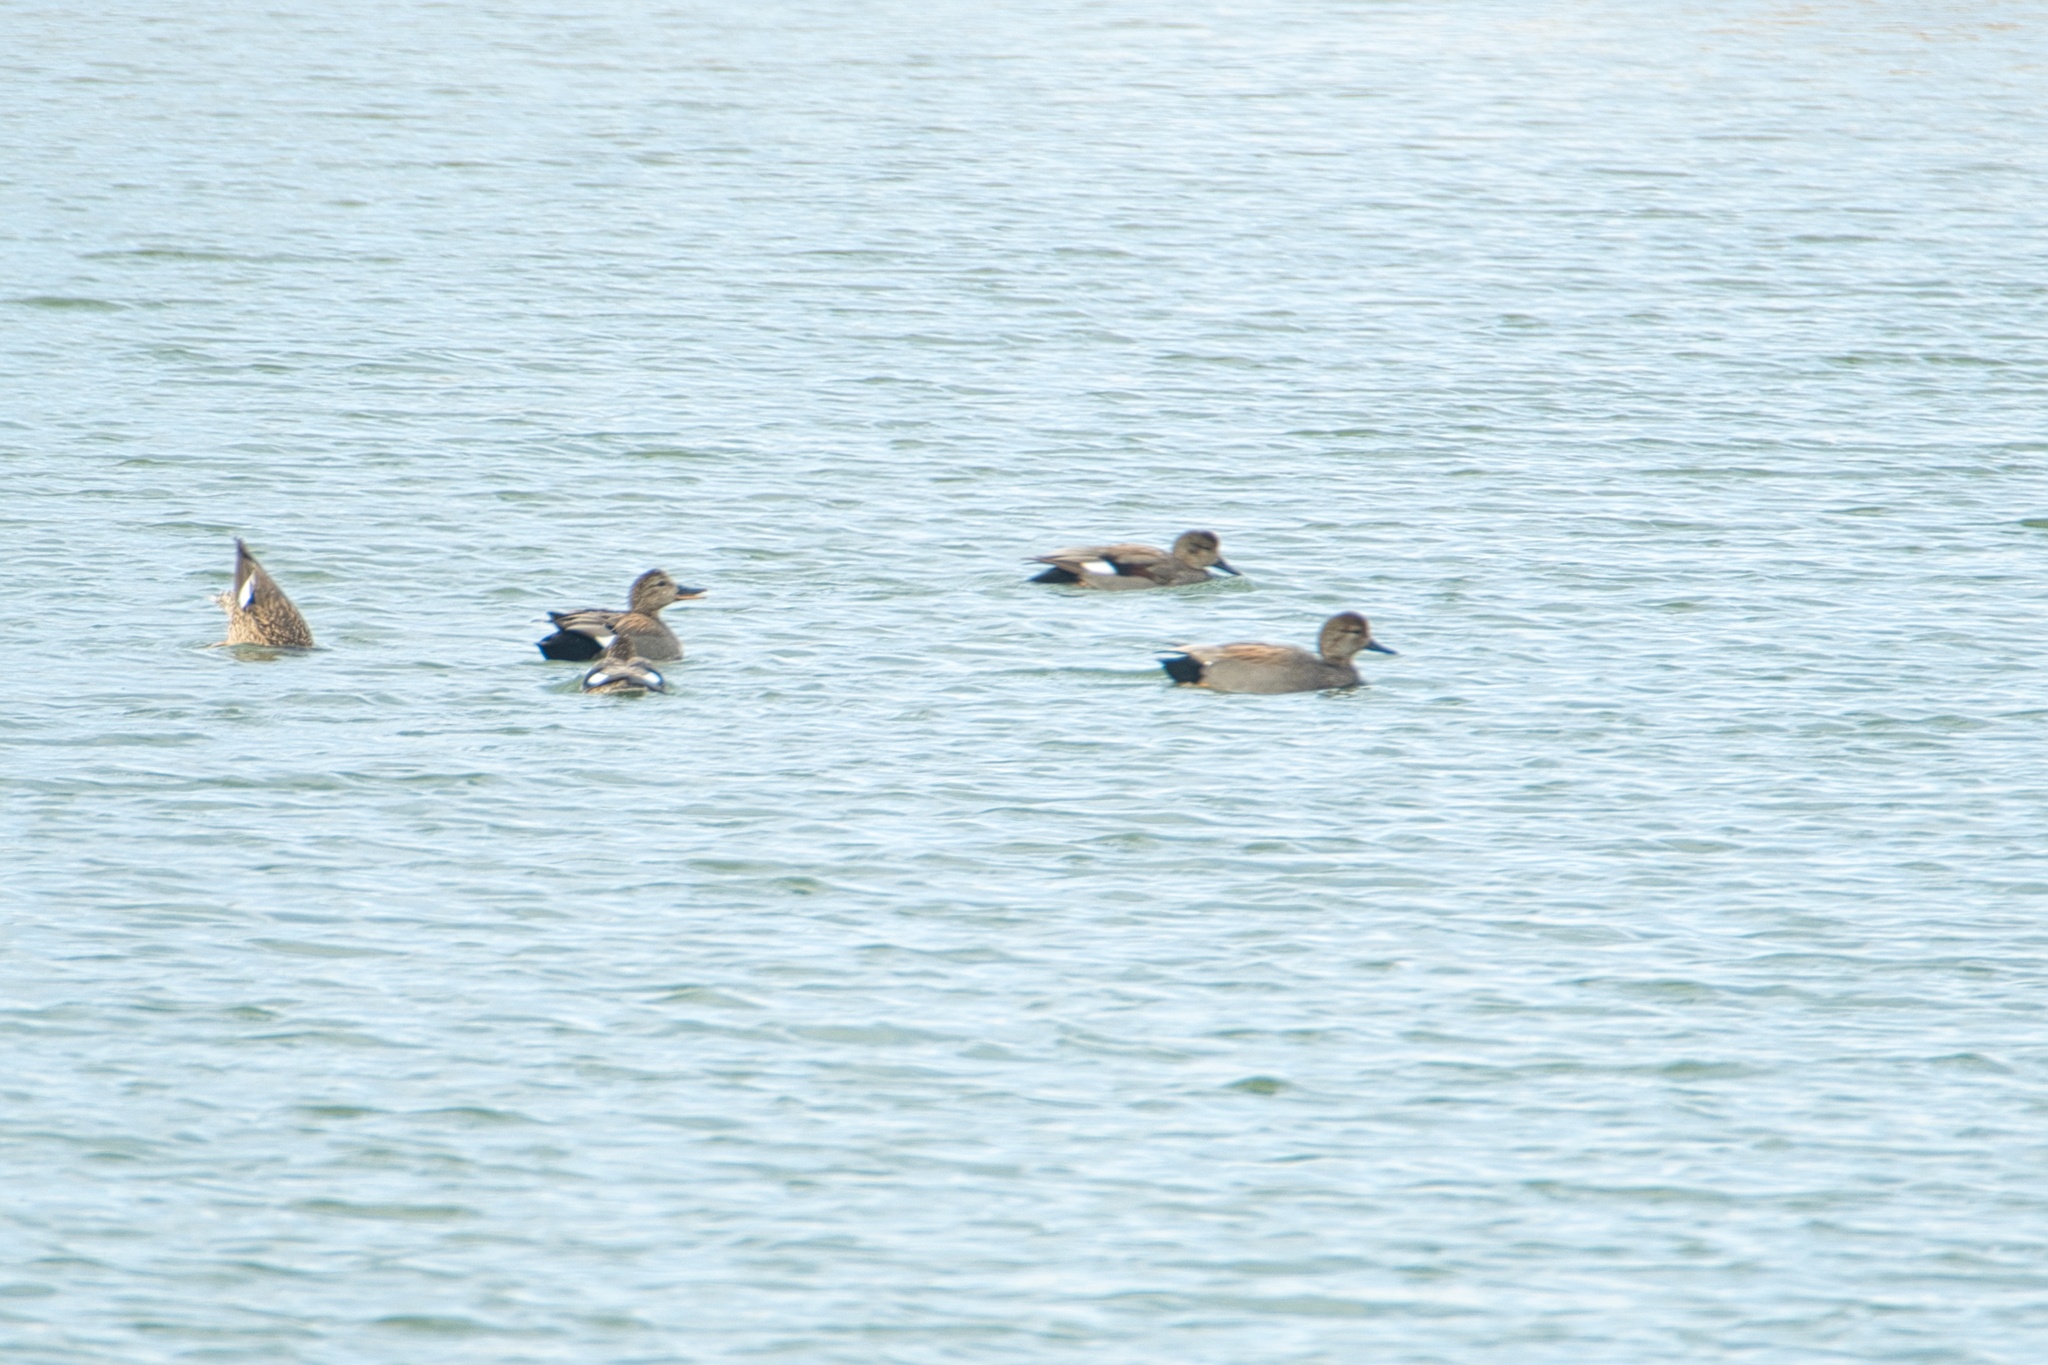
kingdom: Animalia
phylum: Chordata
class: Aves
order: Anseriformes
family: Anatidae
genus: Mareca
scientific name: Mareca strepera
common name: Gadwall
